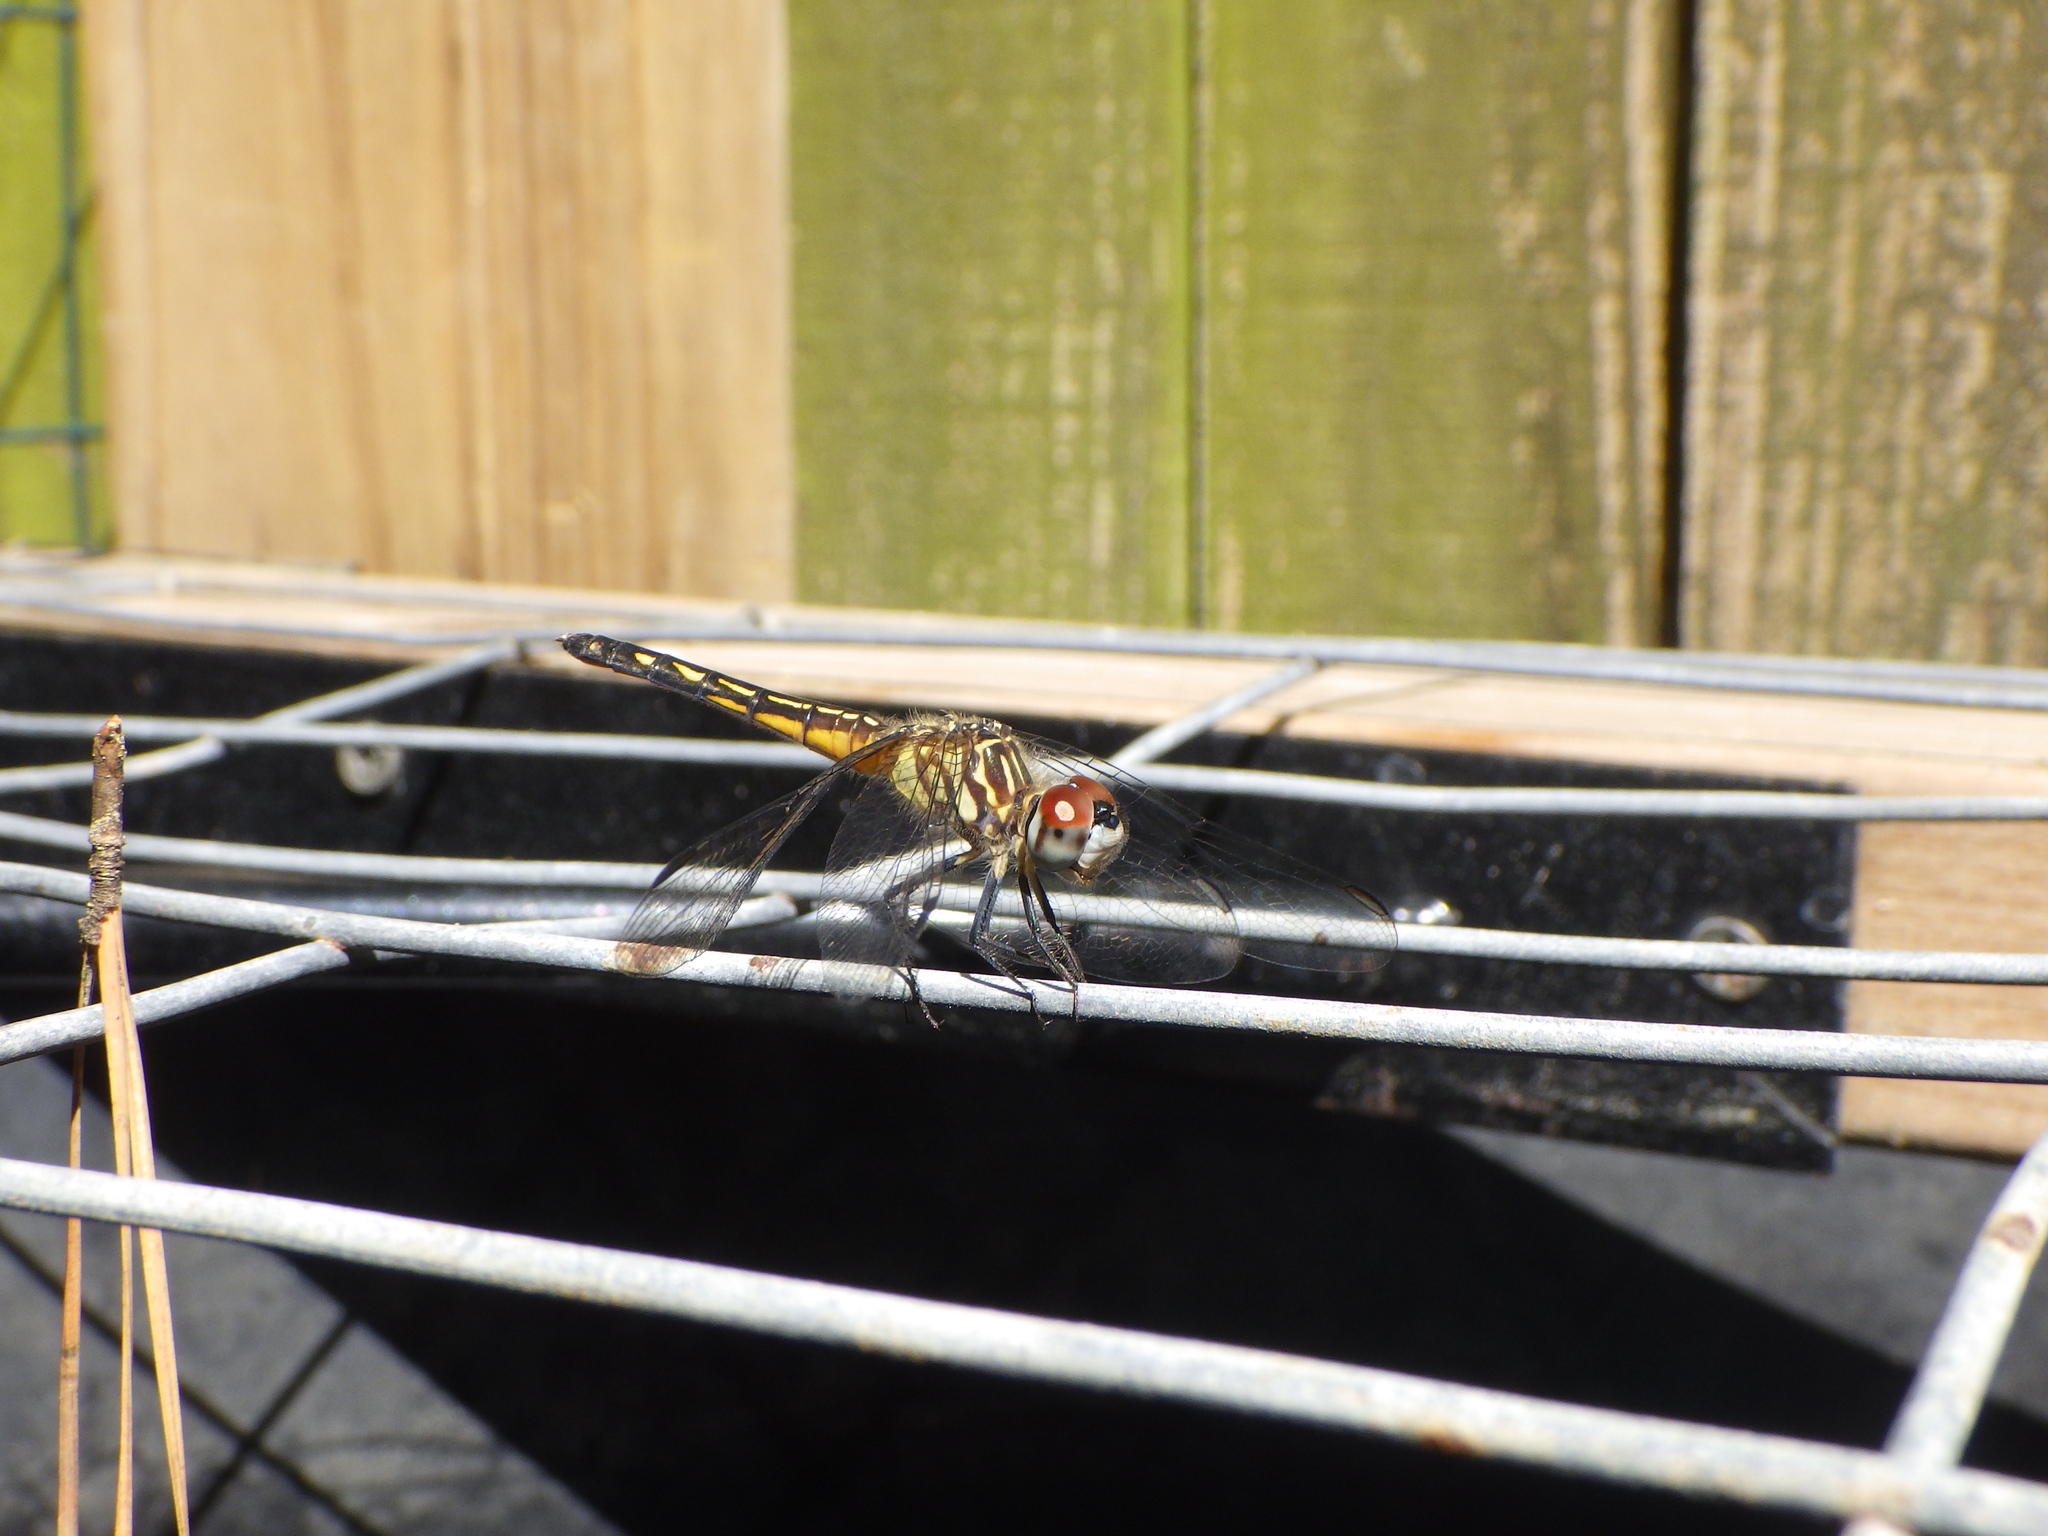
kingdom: Animalia
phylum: Arthropoda
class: Insecta
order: Odonata
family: Libellulidae
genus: Pachydiplax
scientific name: Pachydiplax longipennis
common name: Blue dasher
